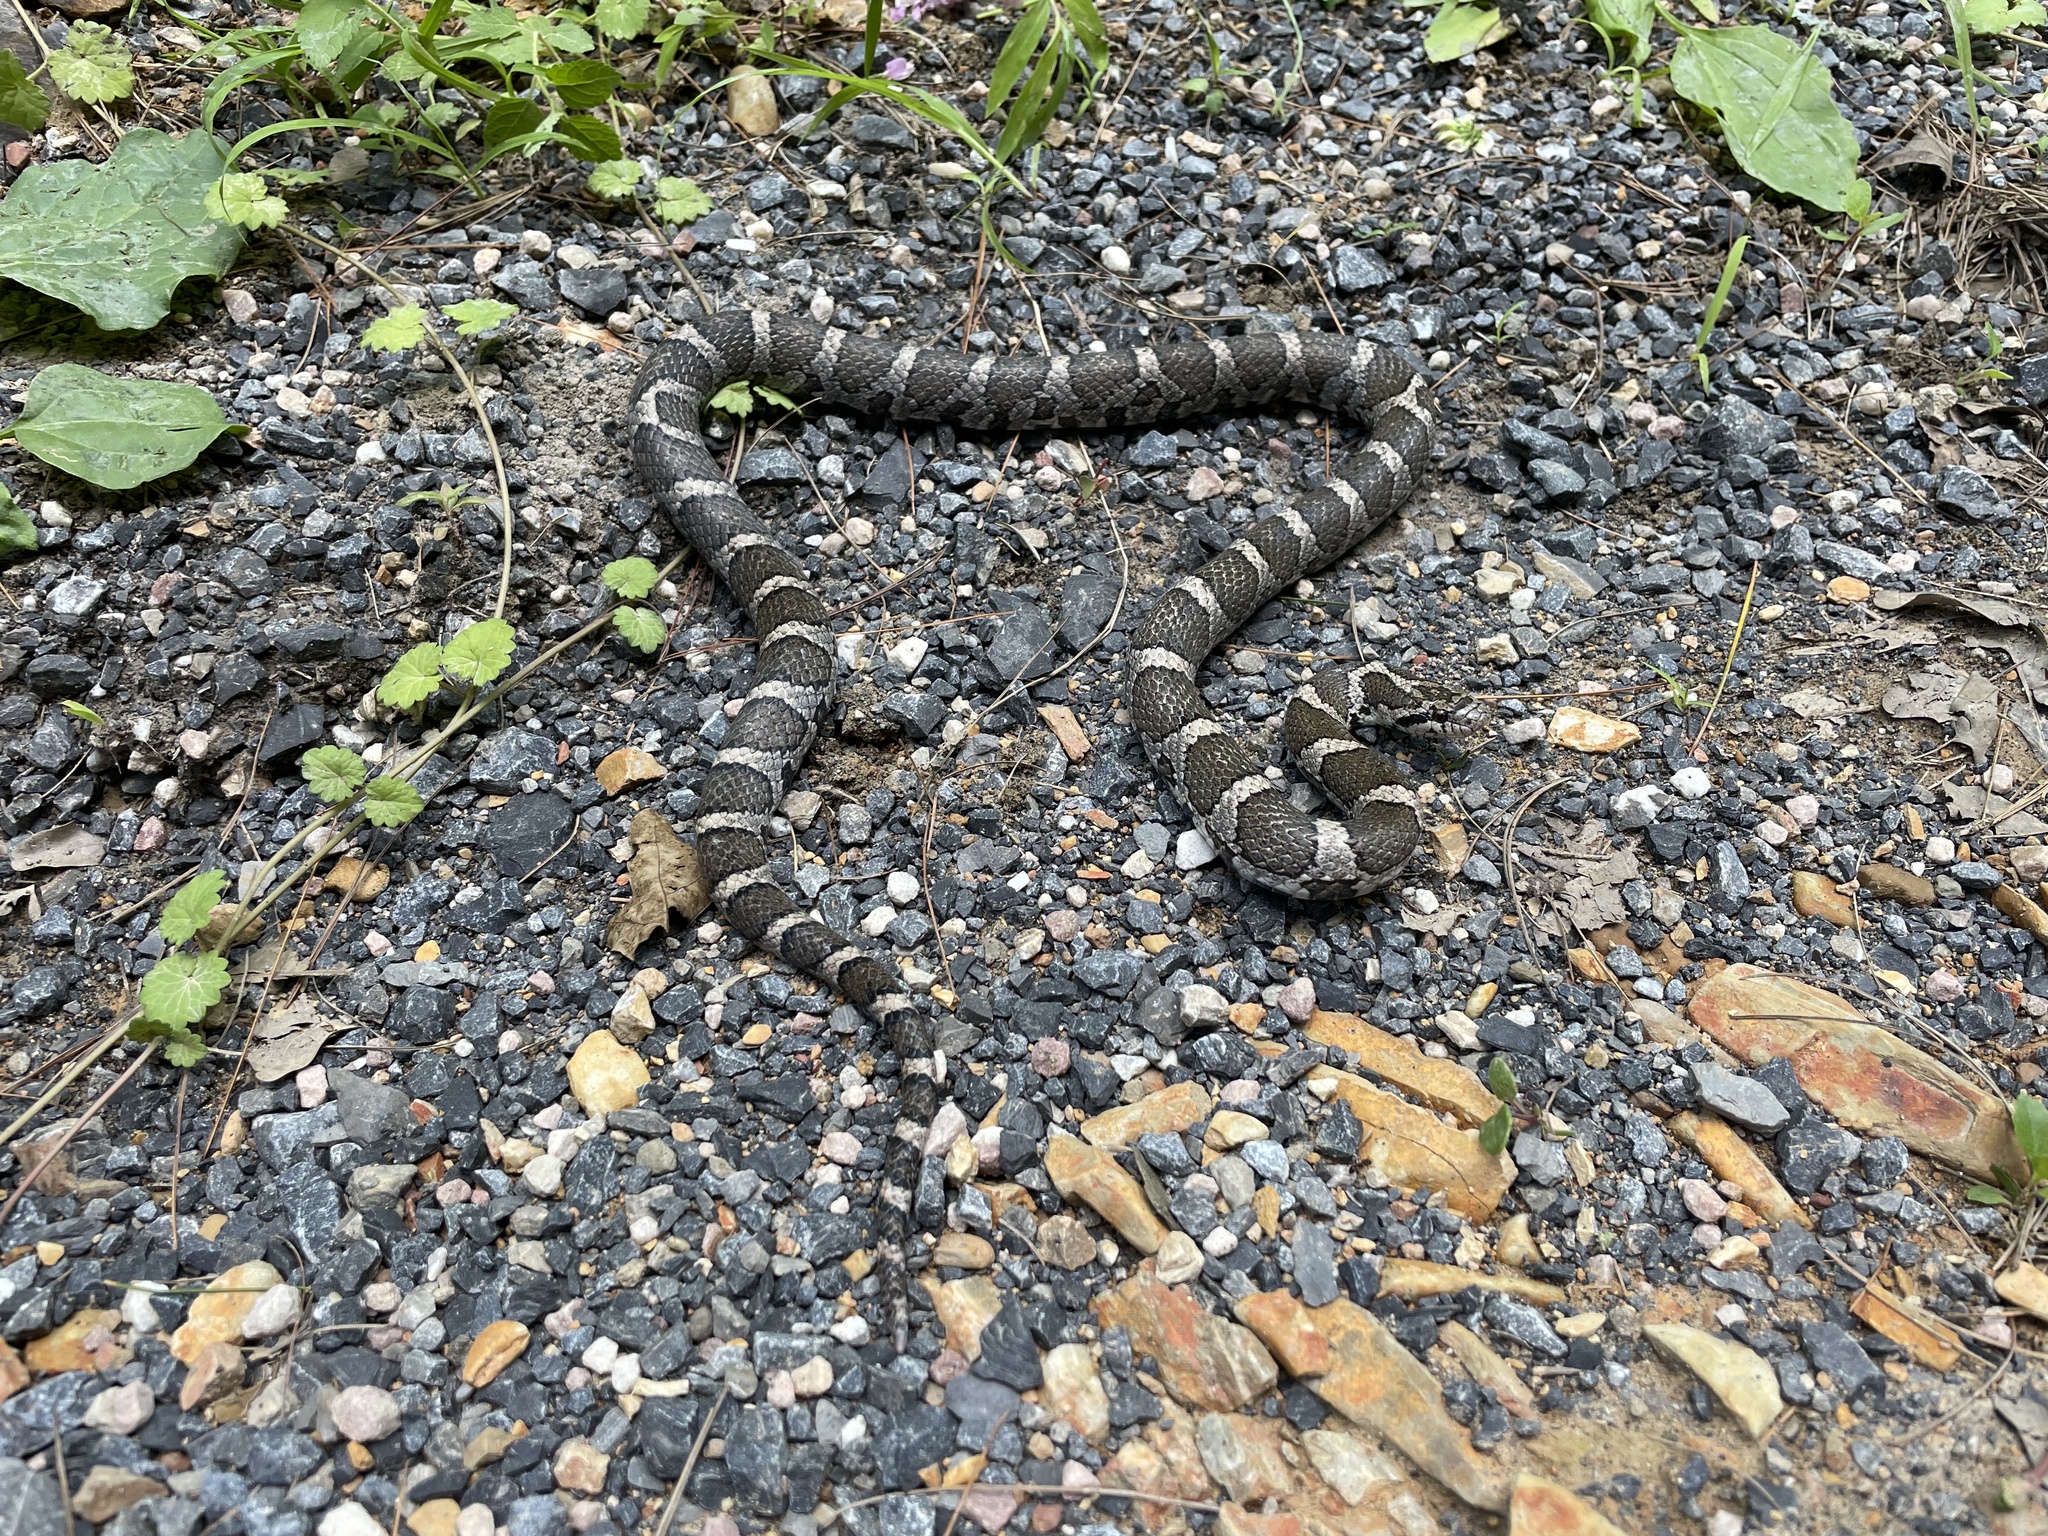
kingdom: Animalia
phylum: Chordata
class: Squamata
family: Colubridae
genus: Lampropeltis
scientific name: Lampropeltis triangulum
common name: Eastern milksnake
